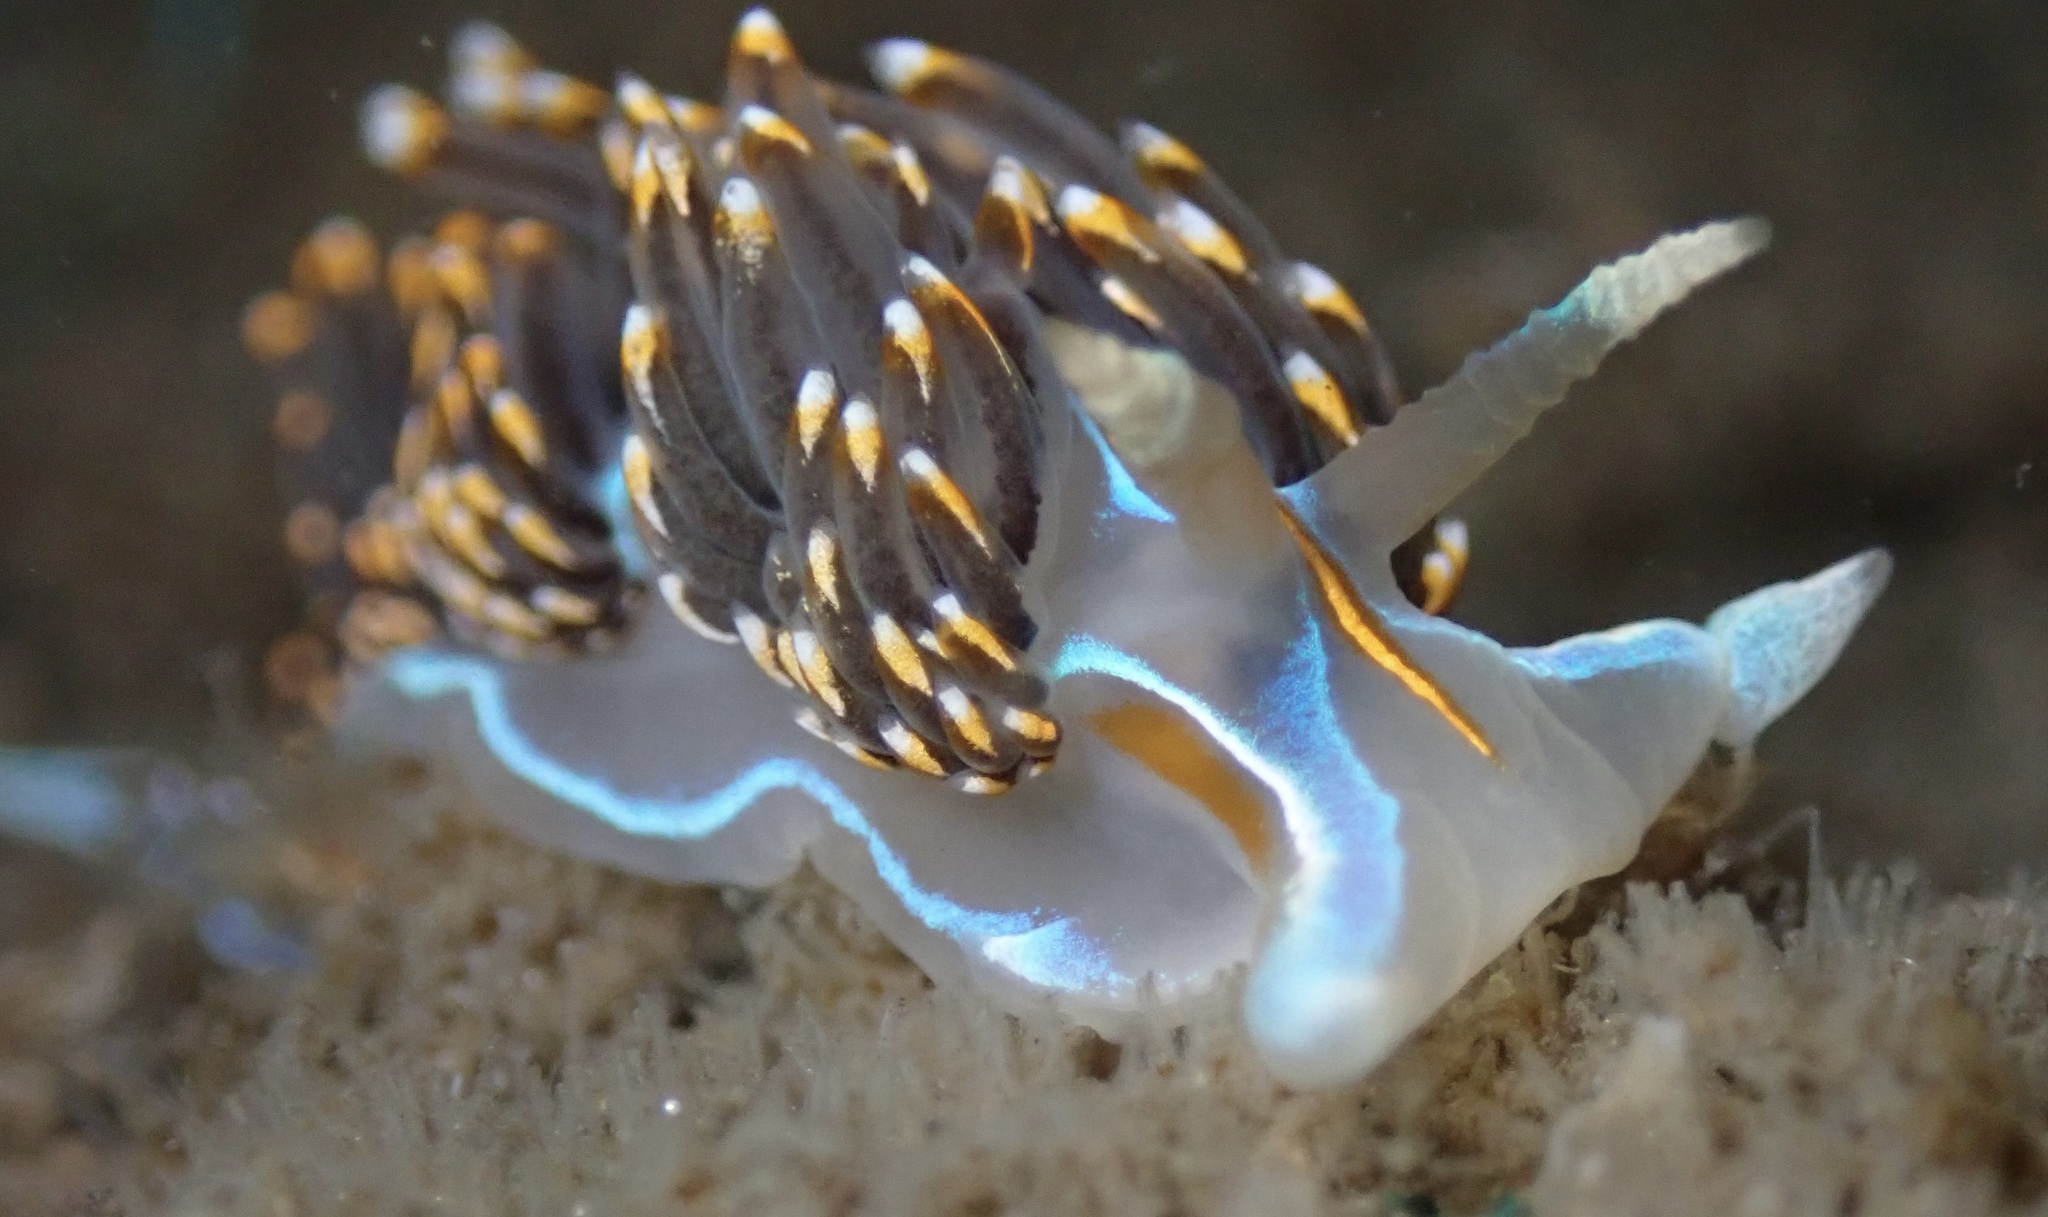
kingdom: Animalia
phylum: Mollusca
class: Gastropoda
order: Nudibranchia
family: Myrrhinidae
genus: Hermissenda
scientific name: Hermissenda opalescens
